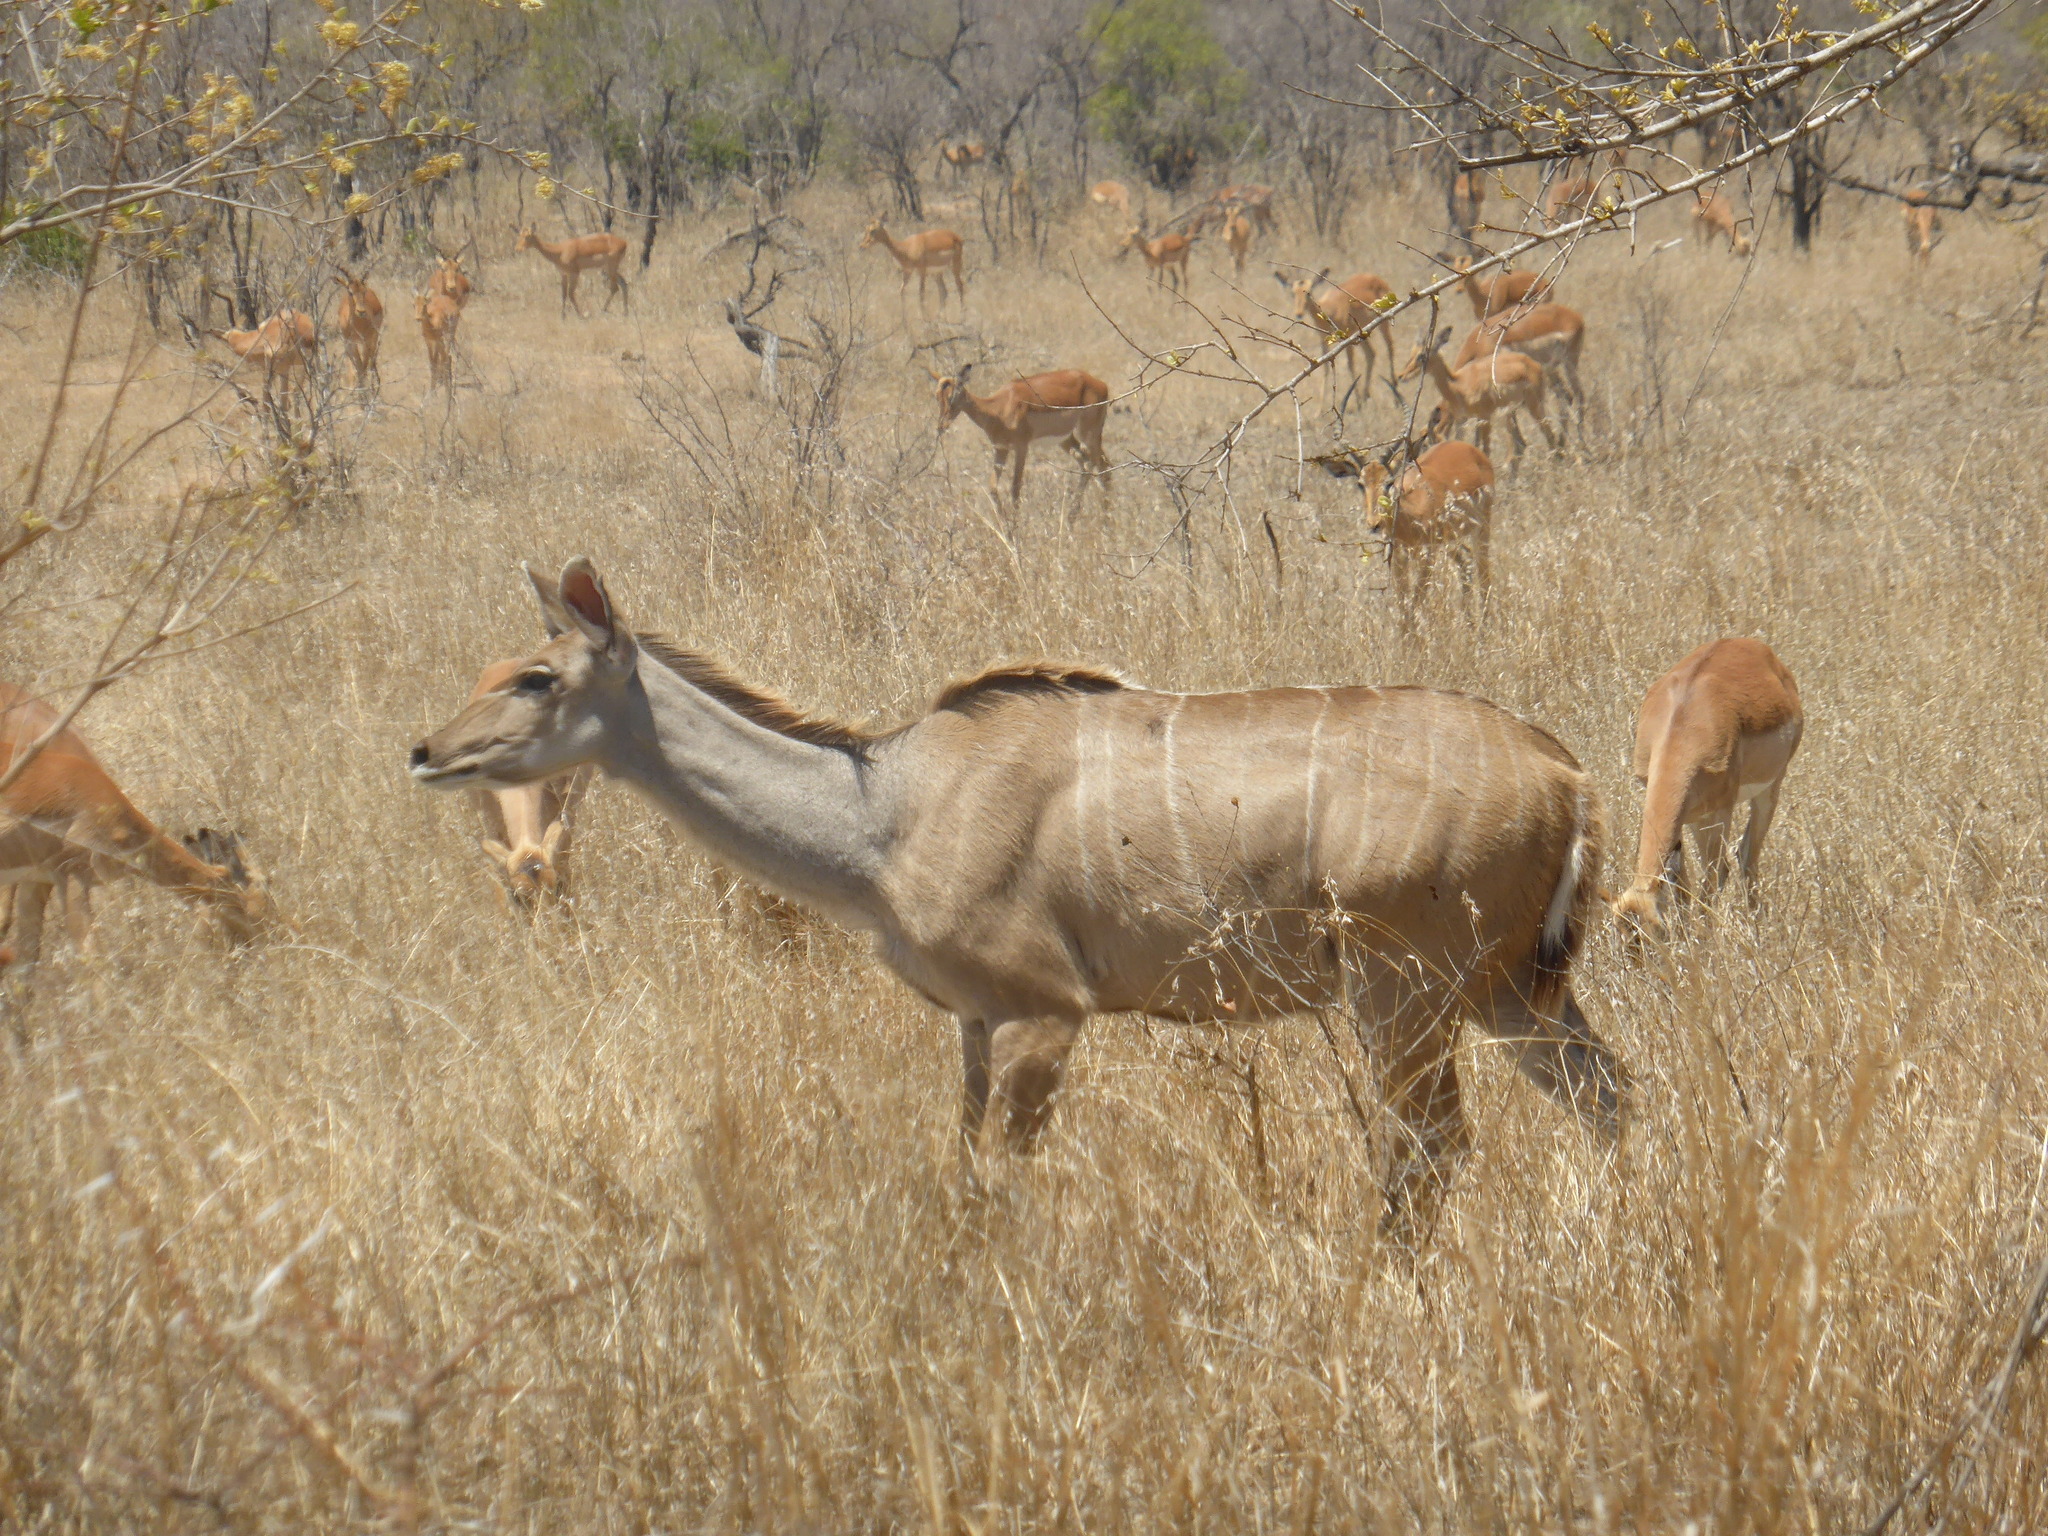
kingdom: Animalia
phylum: Chordata
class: Mammalia
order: Artiodactyla
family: Bovidae
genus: Tragelaphus
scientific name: Tragelaphus strepsiceros
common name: Greater kudu
